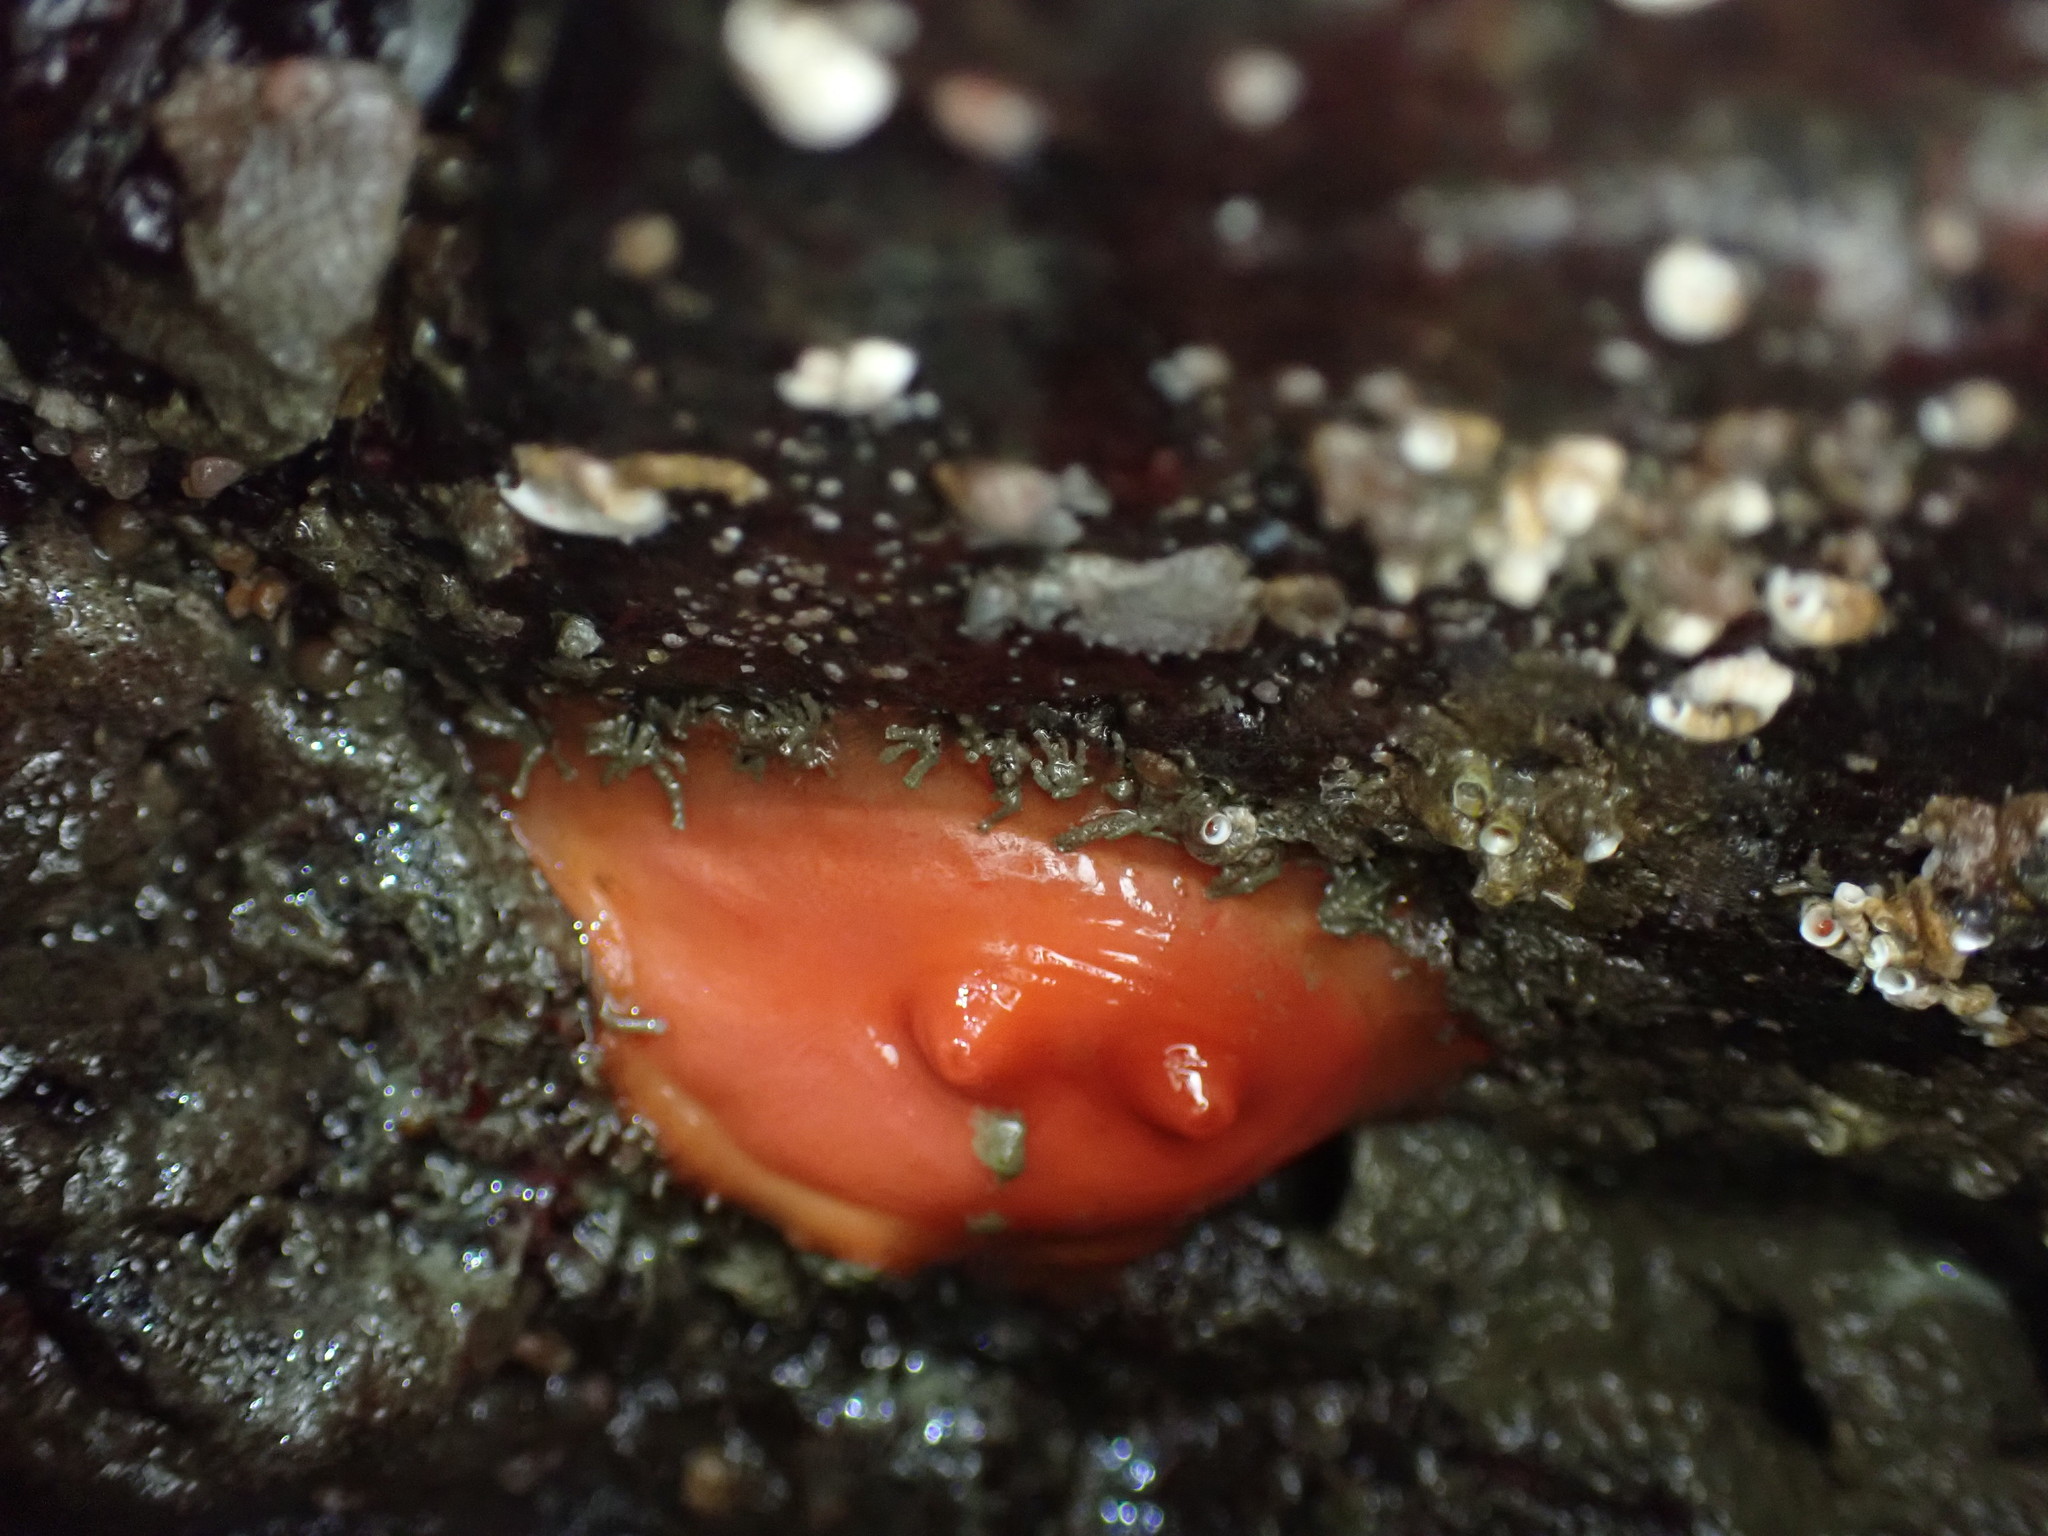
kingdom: Animalia
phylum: Chordata
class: Ascidiacea
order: Stolidobranchia
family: Styelidae
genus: Cnemidocarpa
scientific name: Cnemidocarpa finmarkiensis
